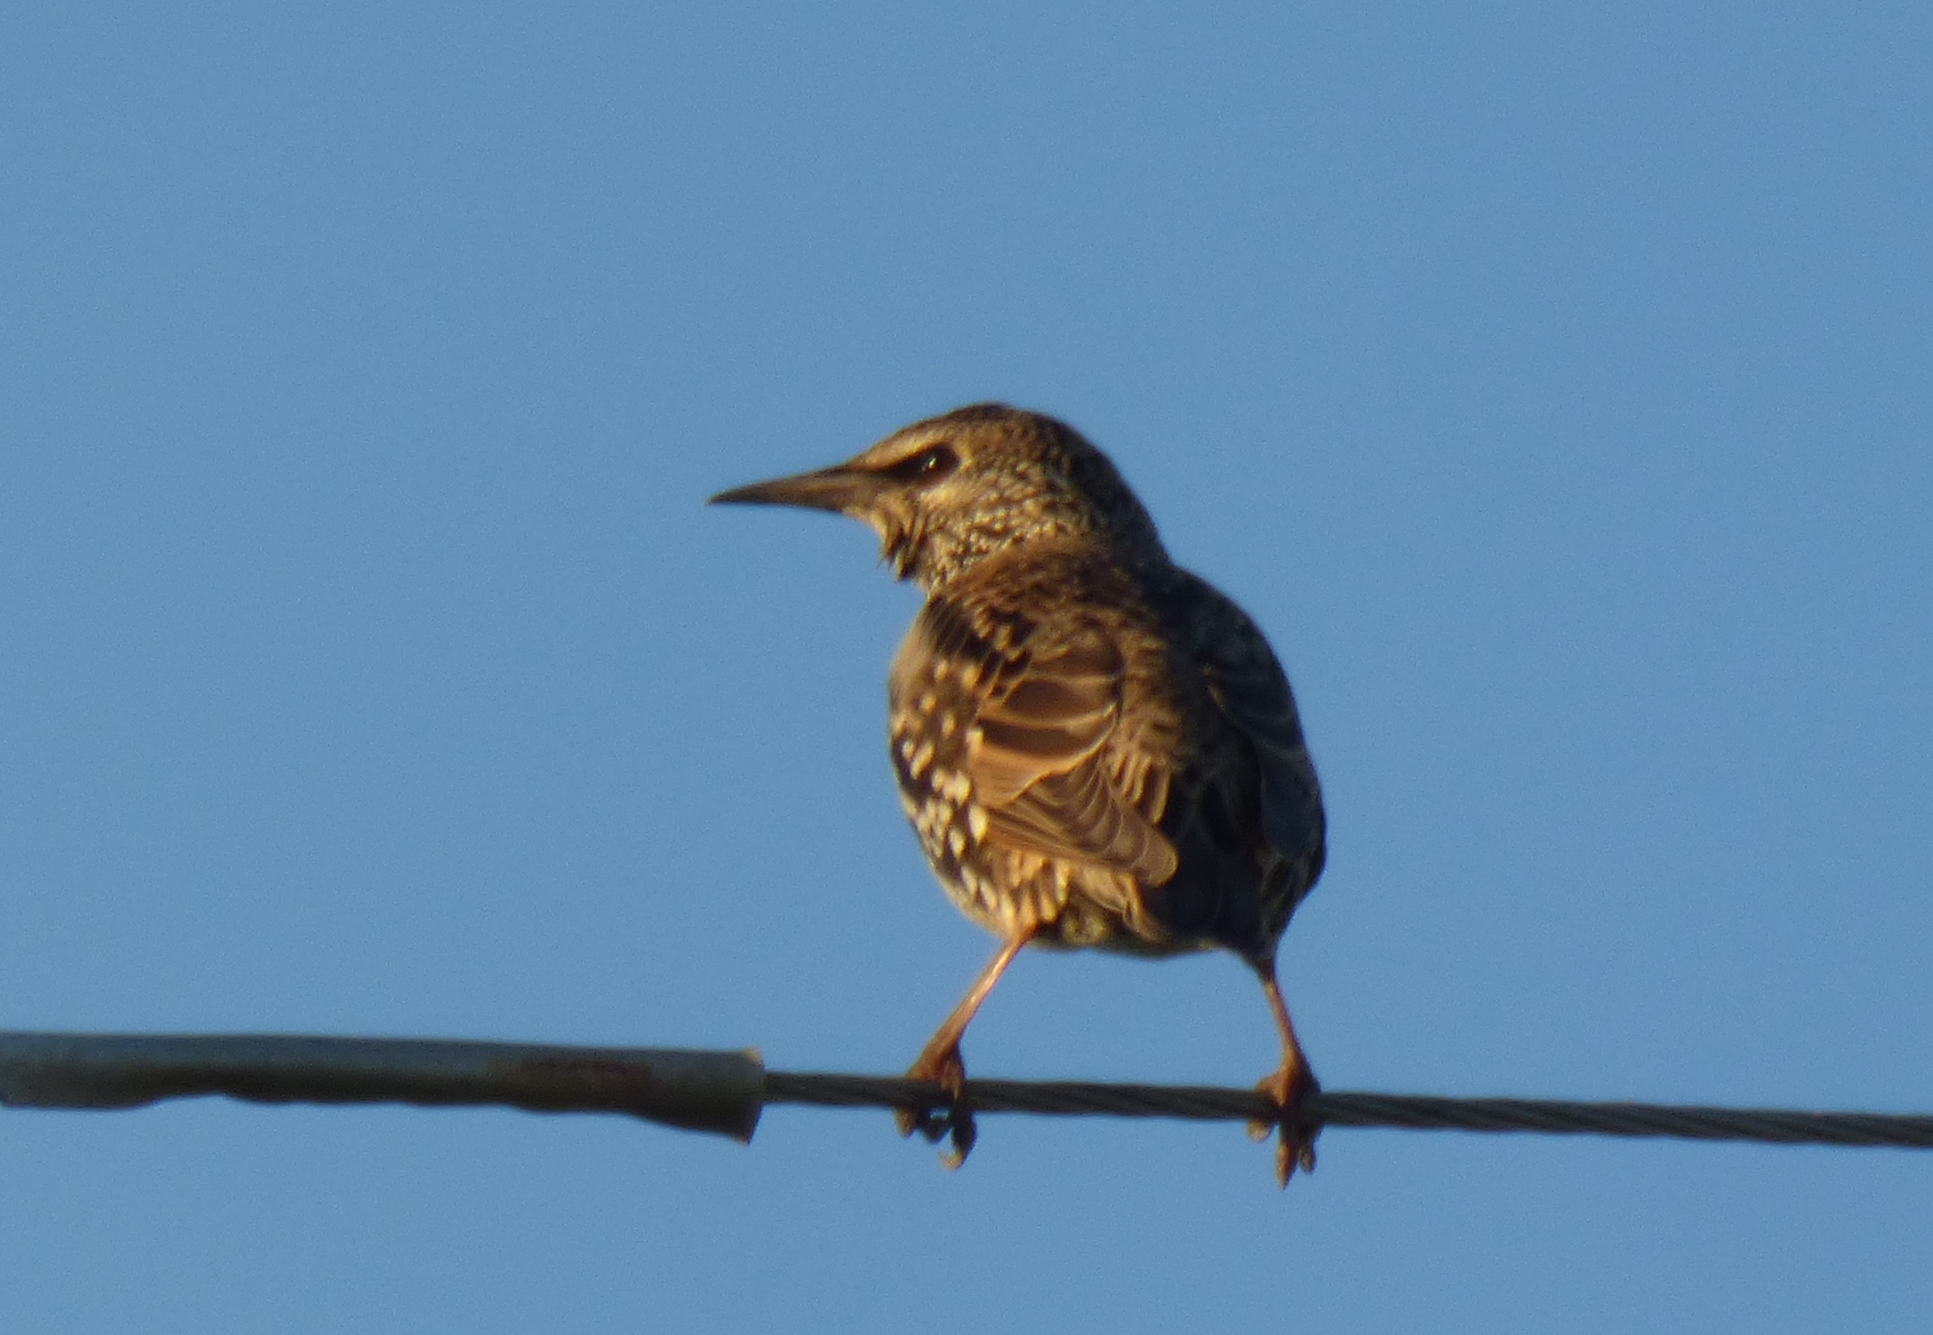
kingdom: Animalia
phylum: Chordata
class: Aves
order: Passeriformes
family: Sturnidae
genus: Sturnus
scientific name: Sturnus vulgaris
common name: Common starling
